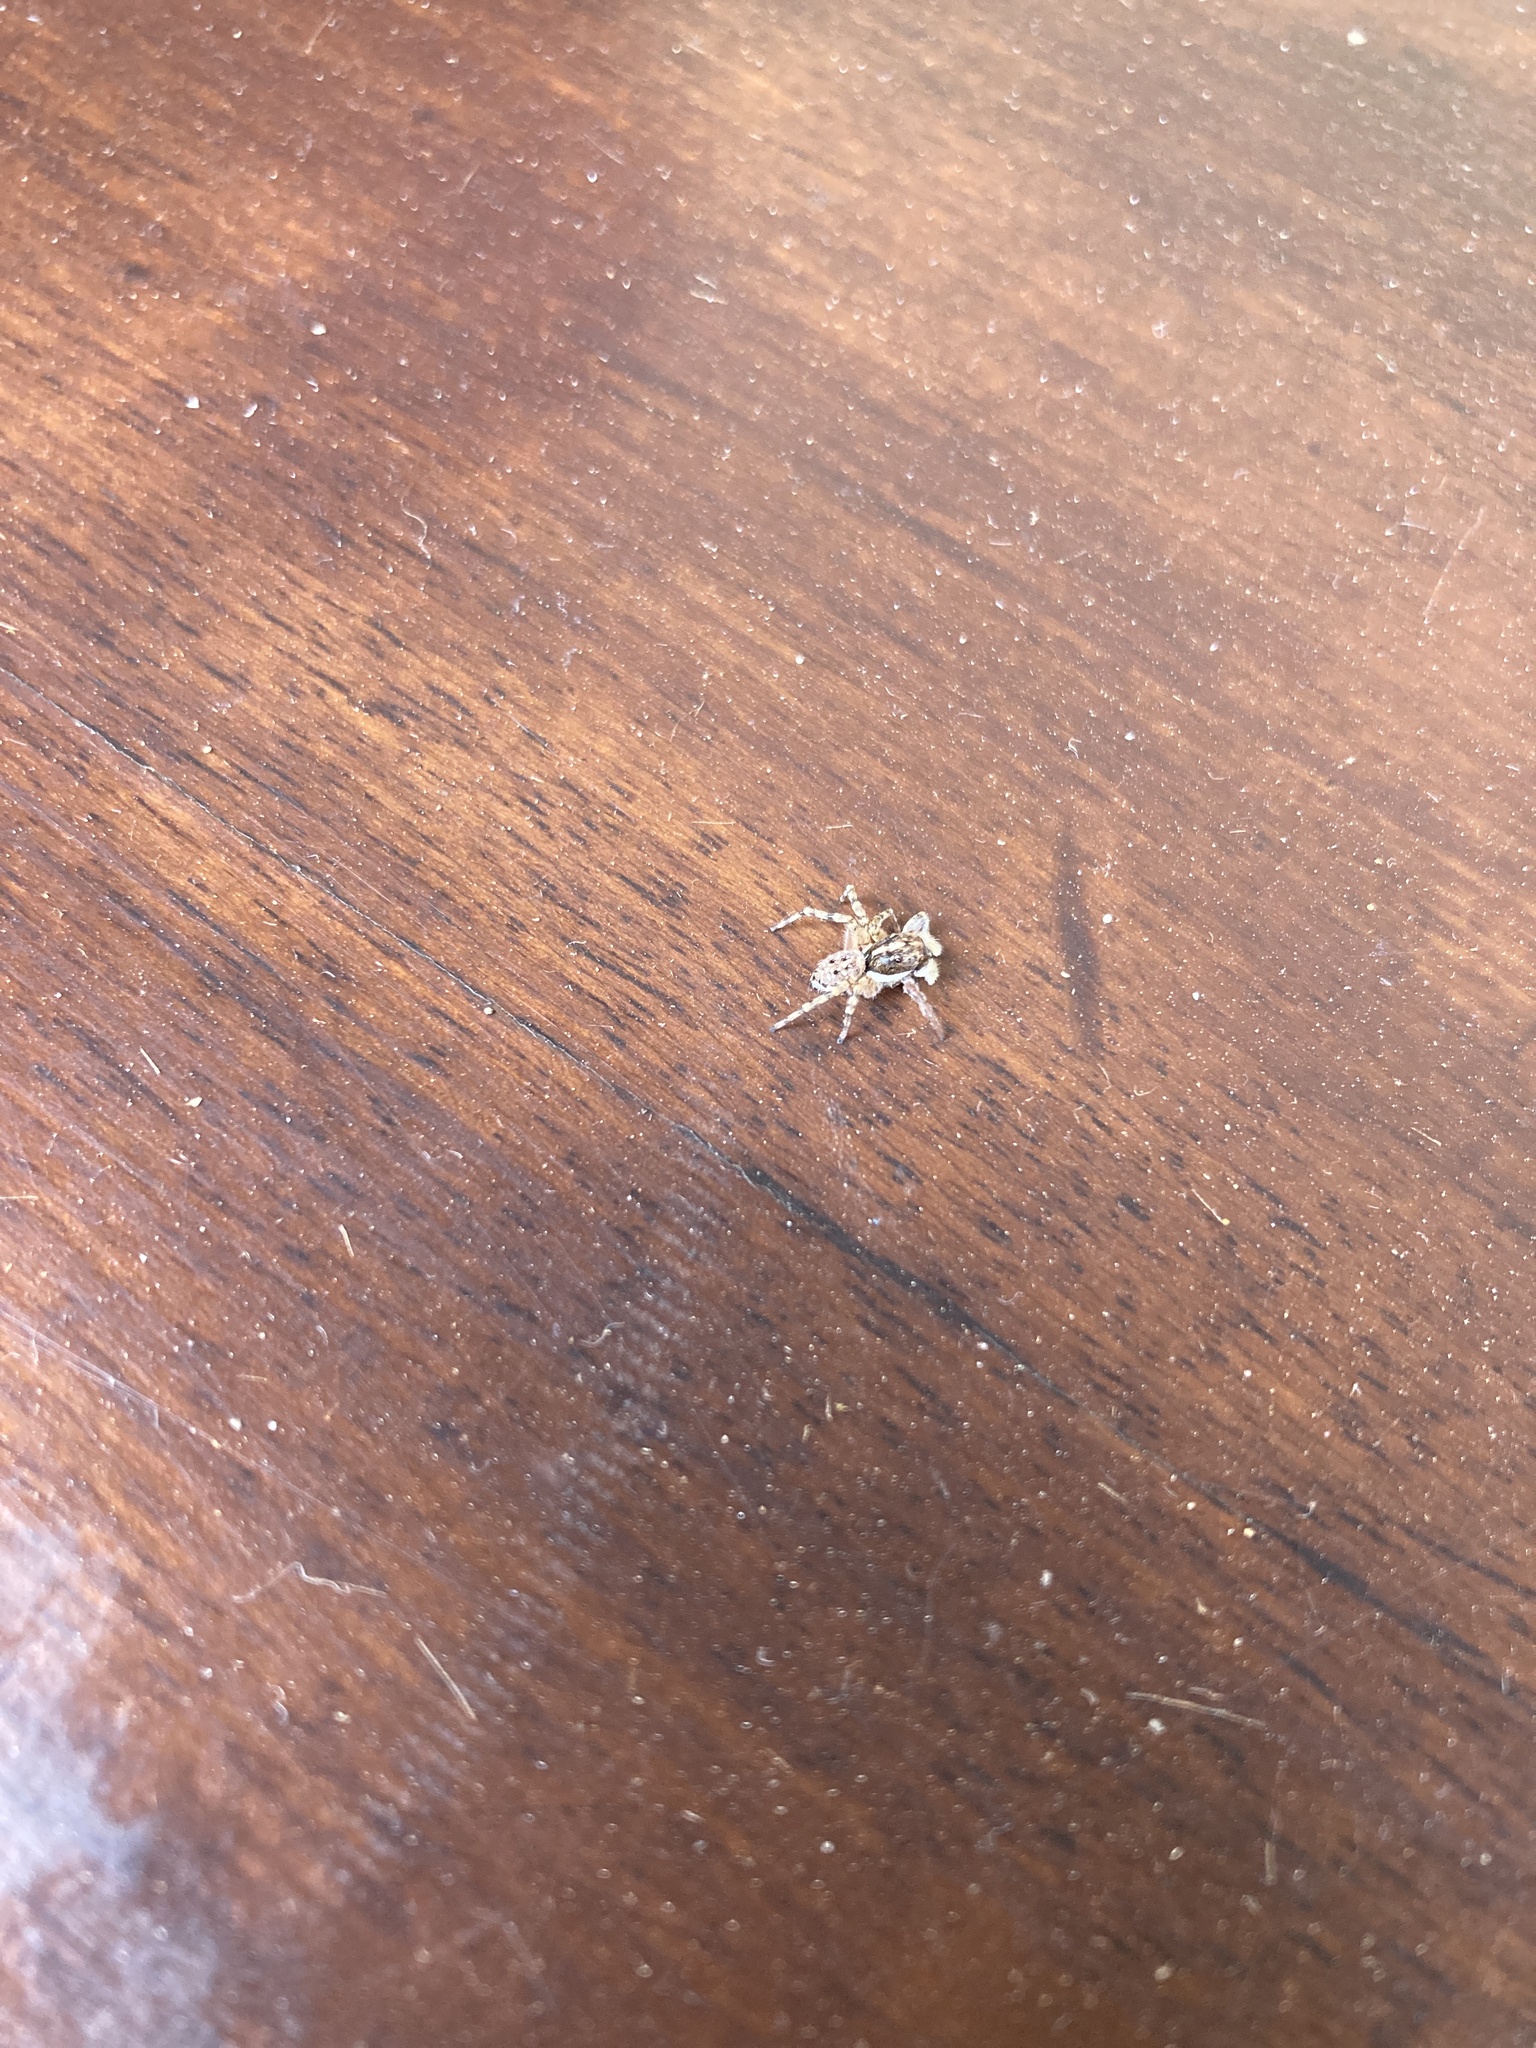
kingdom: Animalia
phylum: Arthropoda
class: Arachnida
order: Araneae
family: Salticidae
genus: Menemerus
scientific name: Menemerus semilimbatus
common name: Jumping spider
